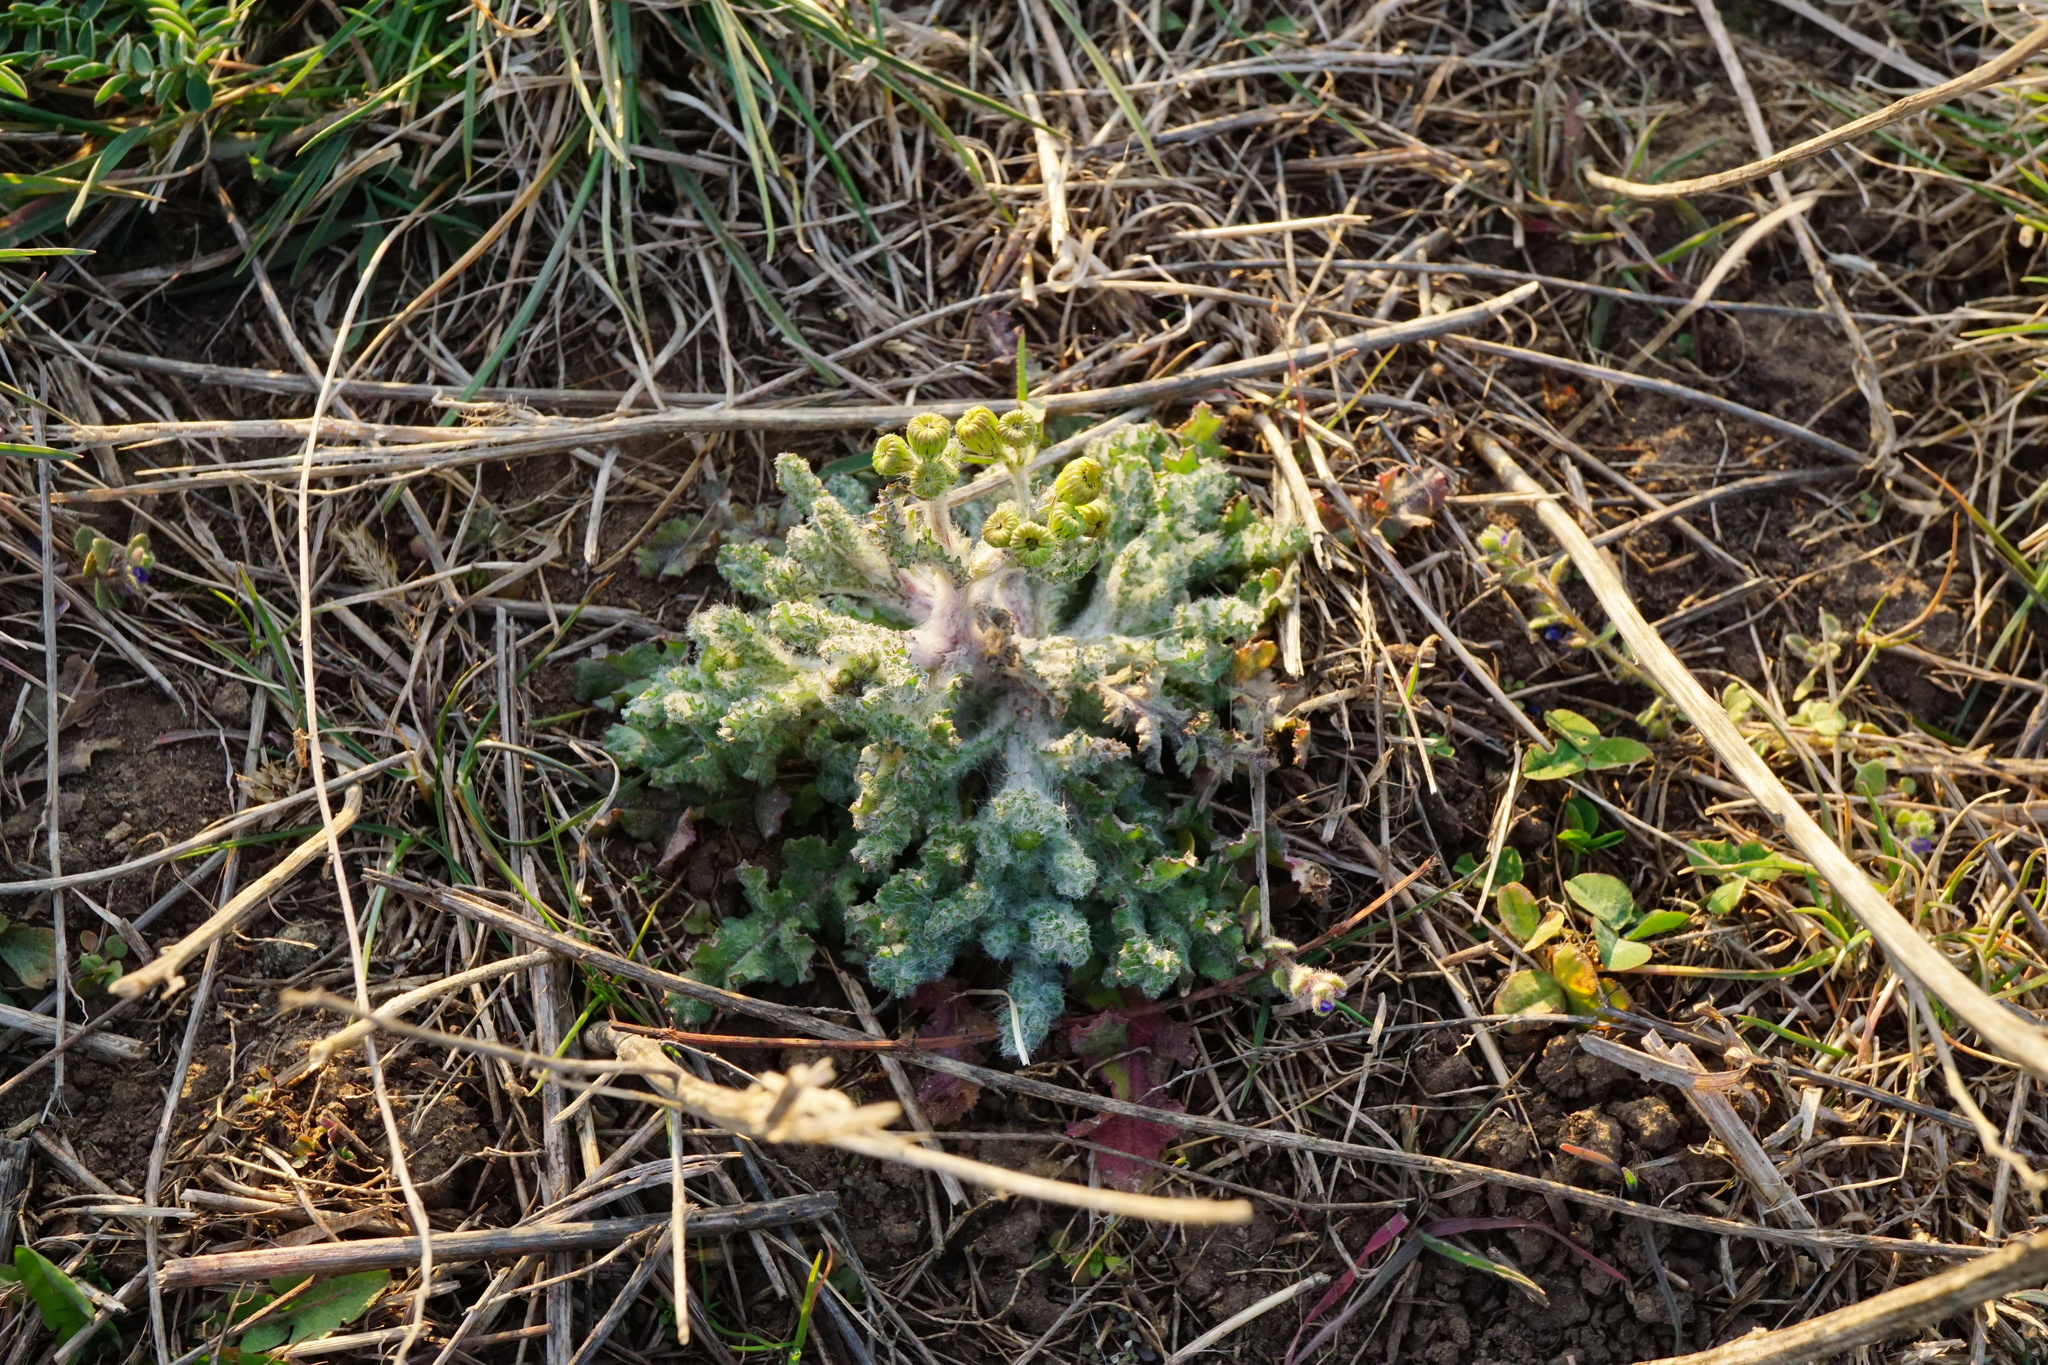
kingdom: Plantae
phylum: Tracheophyta
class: Magnoliopsida
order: Asterales
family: Asteraceae
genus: Senecio
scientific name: Senecio vernalis
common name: Eastern groundsel
